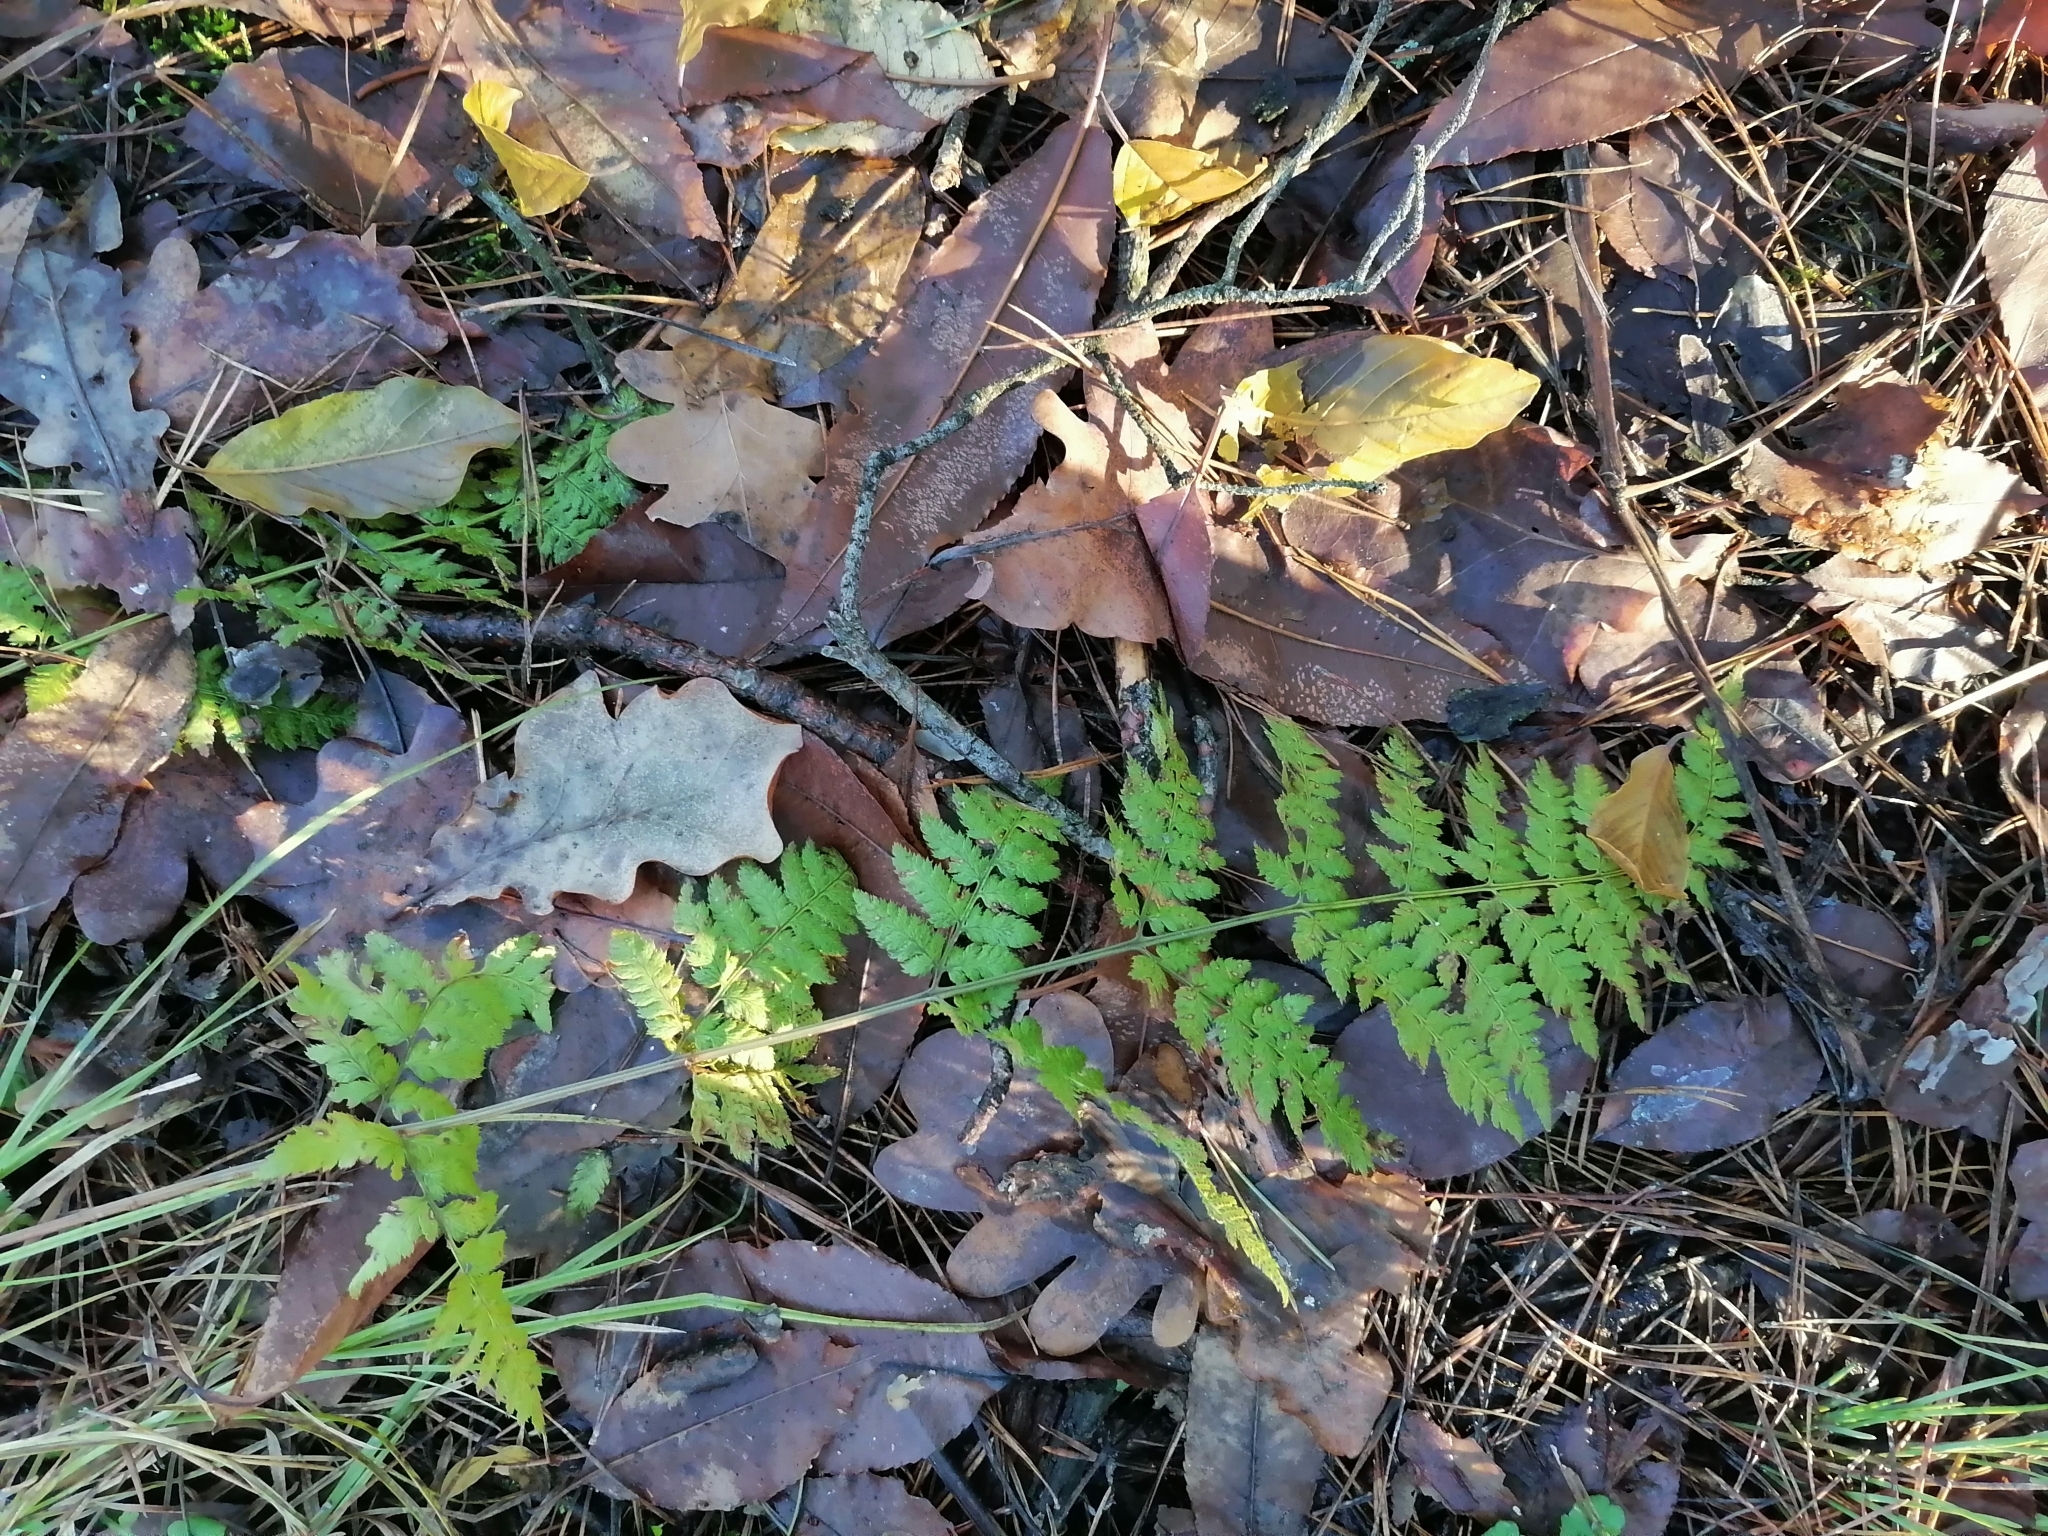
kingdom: Plantae
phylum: Tracheophyta
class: Polypodiopsida
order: Polypodiales
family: Dryopteridaceae
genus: Dryopteris
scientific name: Dryopteris carthusiana
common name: Narrow buckler-fern
